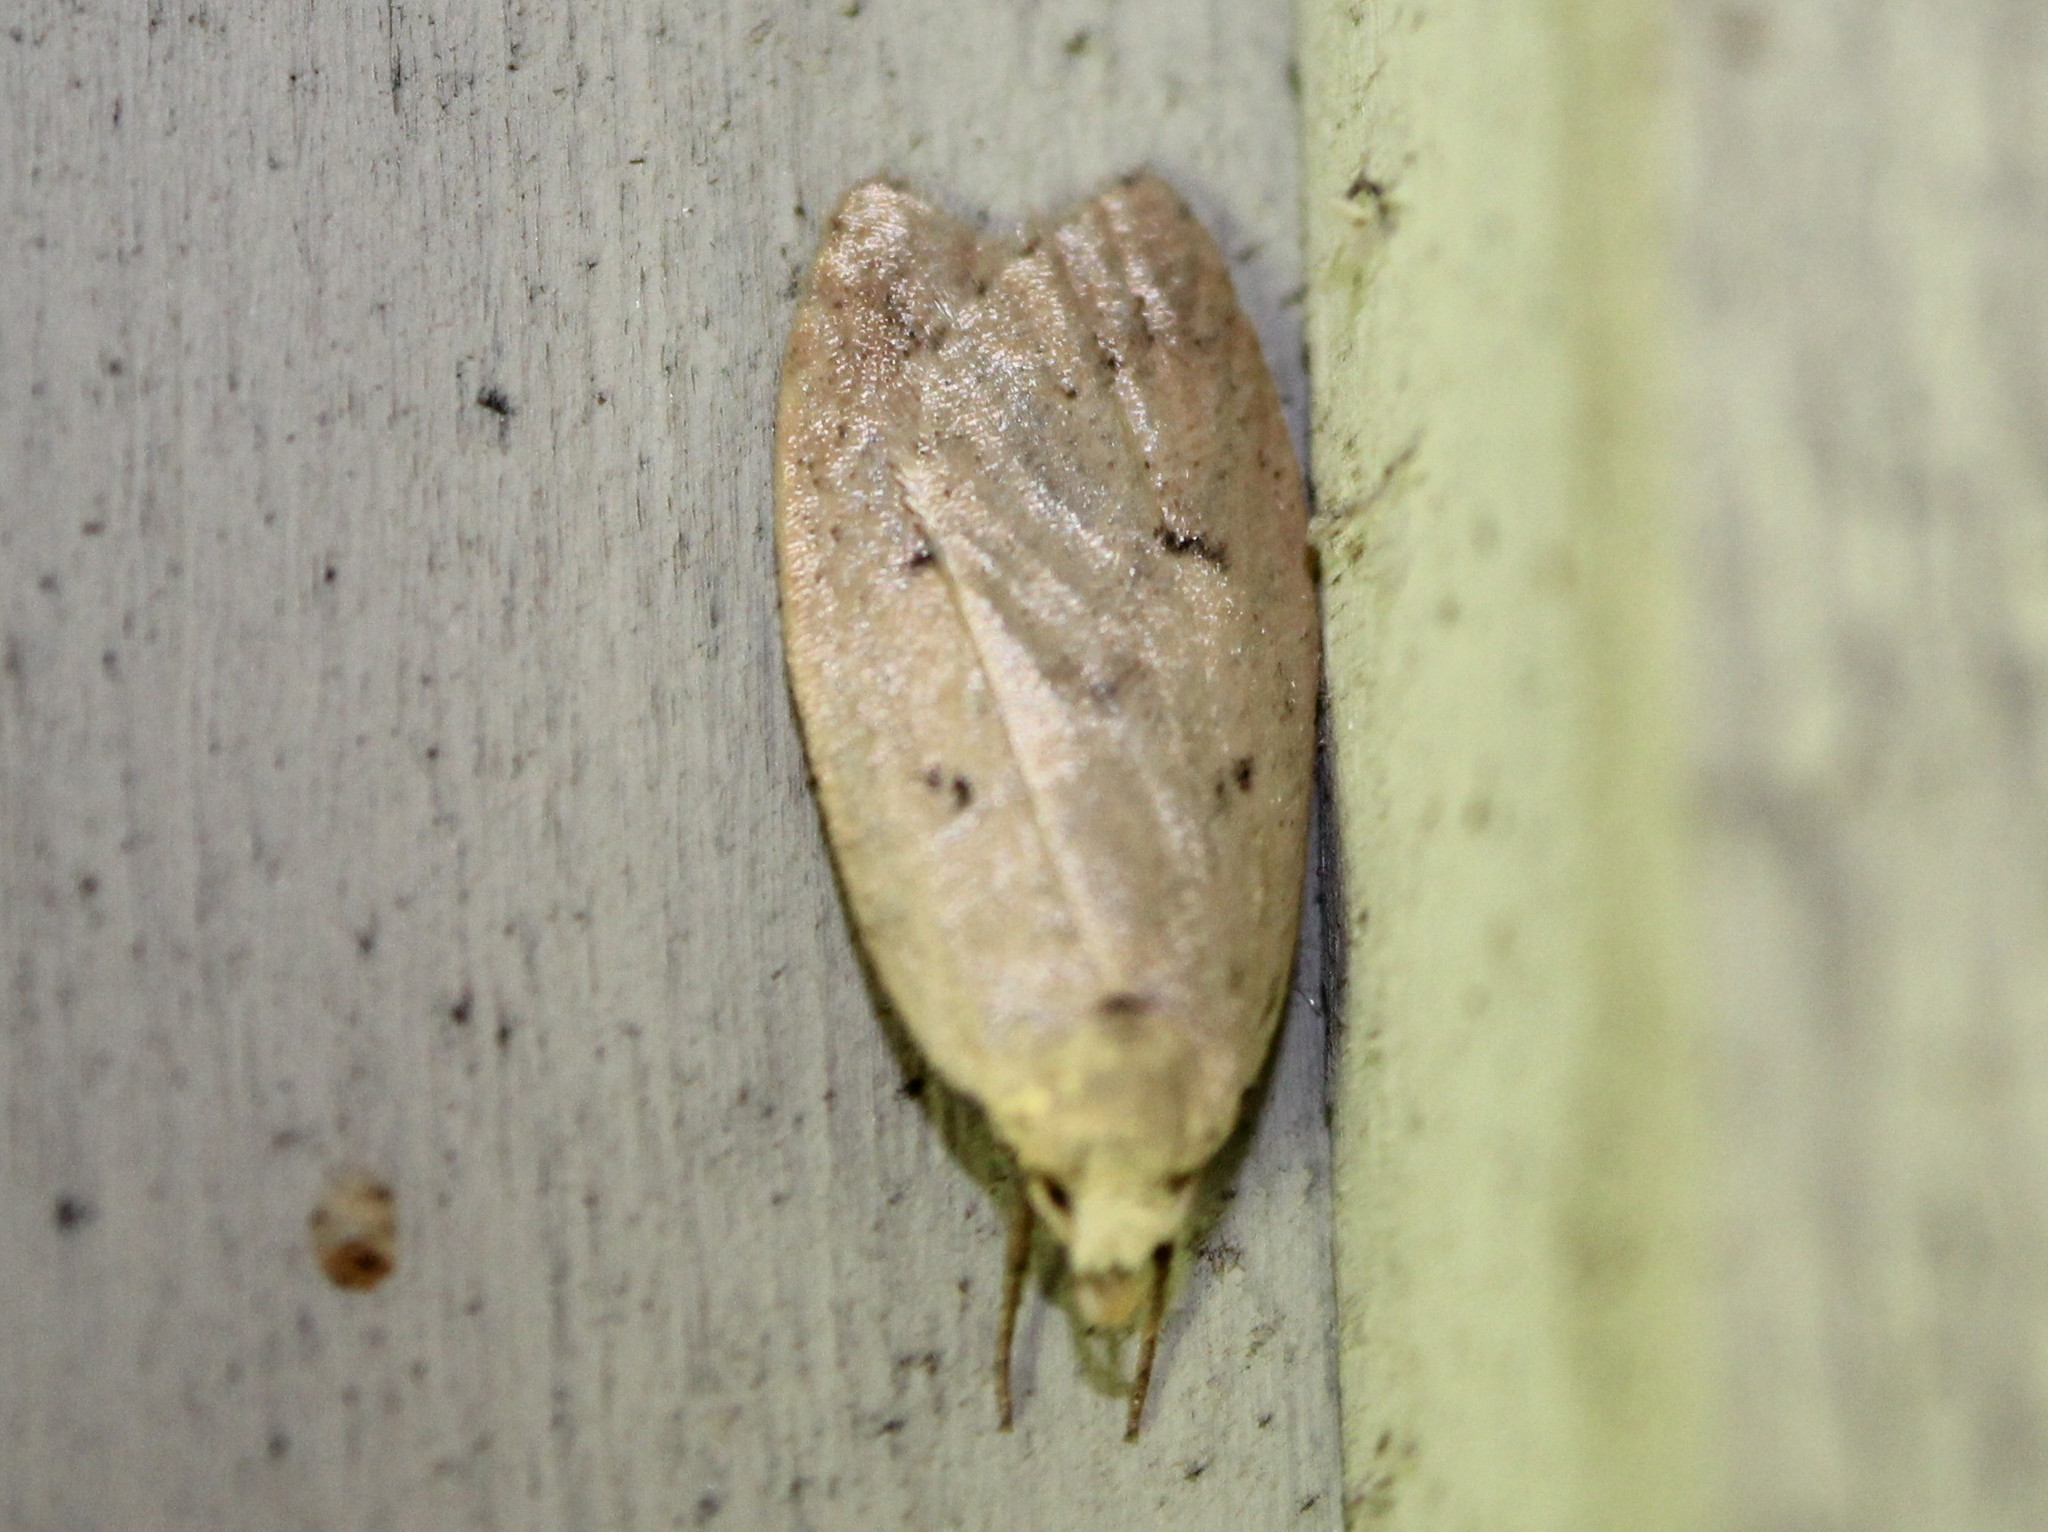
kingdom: Animalia
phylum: Arthropoda
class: Insecta
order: Lepidoptera
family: Peleopodidae
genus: Machimia
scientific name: Machimia tentoriferella
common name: Gold-striped leaftier moth
